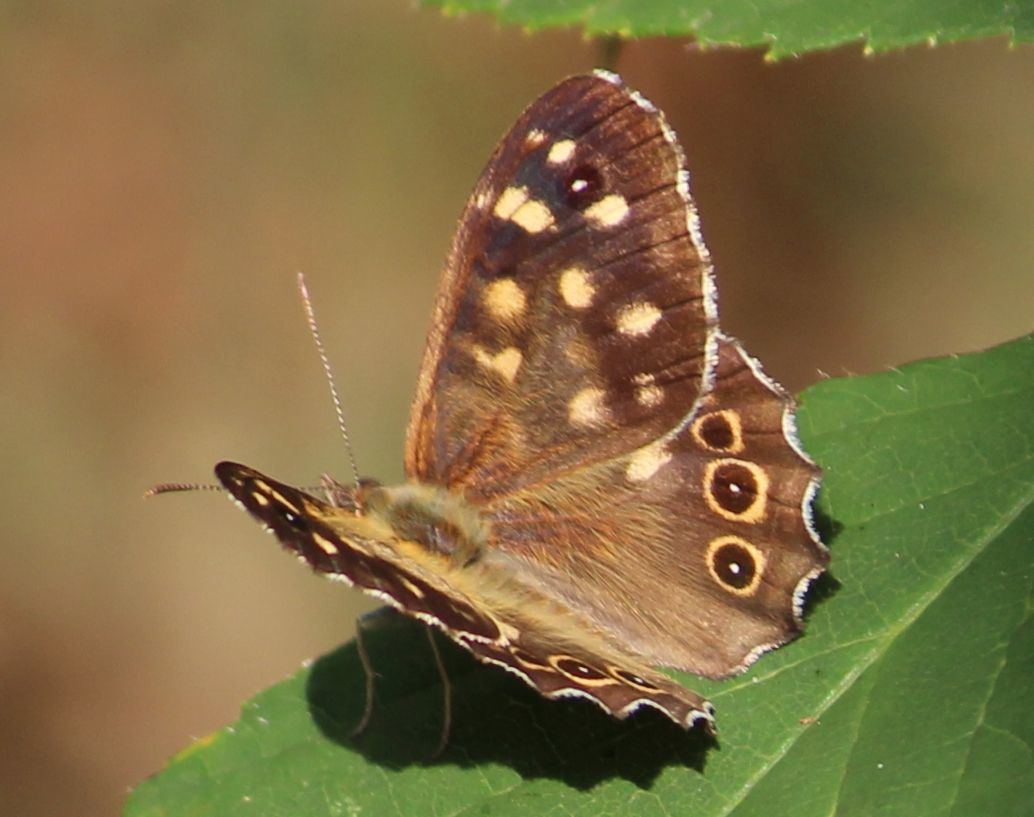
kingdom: Animalia
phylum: Arthropoda
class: Insecta
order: Lepidoptera
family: Nymphalidae
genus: Pararge
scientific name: Pararge aegeria
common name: Speckled wood
